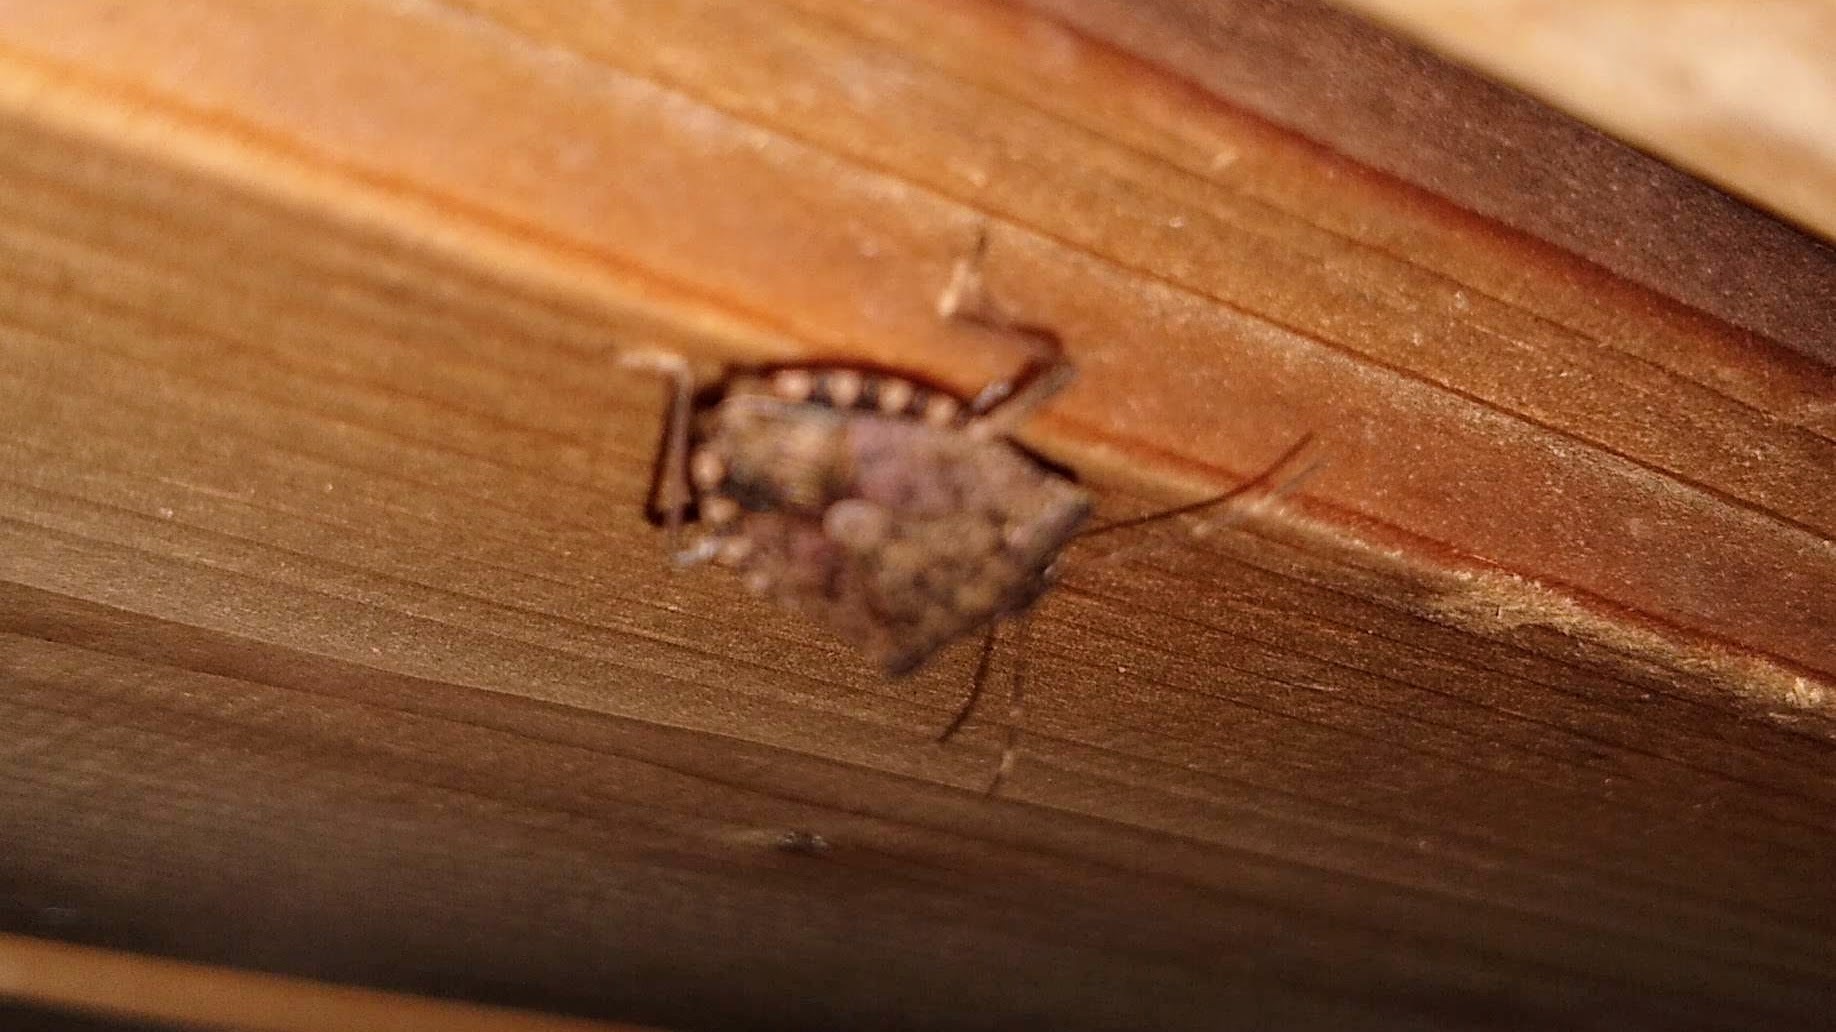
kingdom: Animalia
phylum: Arthropoda
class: Insecta
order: Hemiptera
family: Pentatomidae
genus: Halyomorpha
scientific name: Halyomorpha halys
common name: Brown marmorated stink bug
